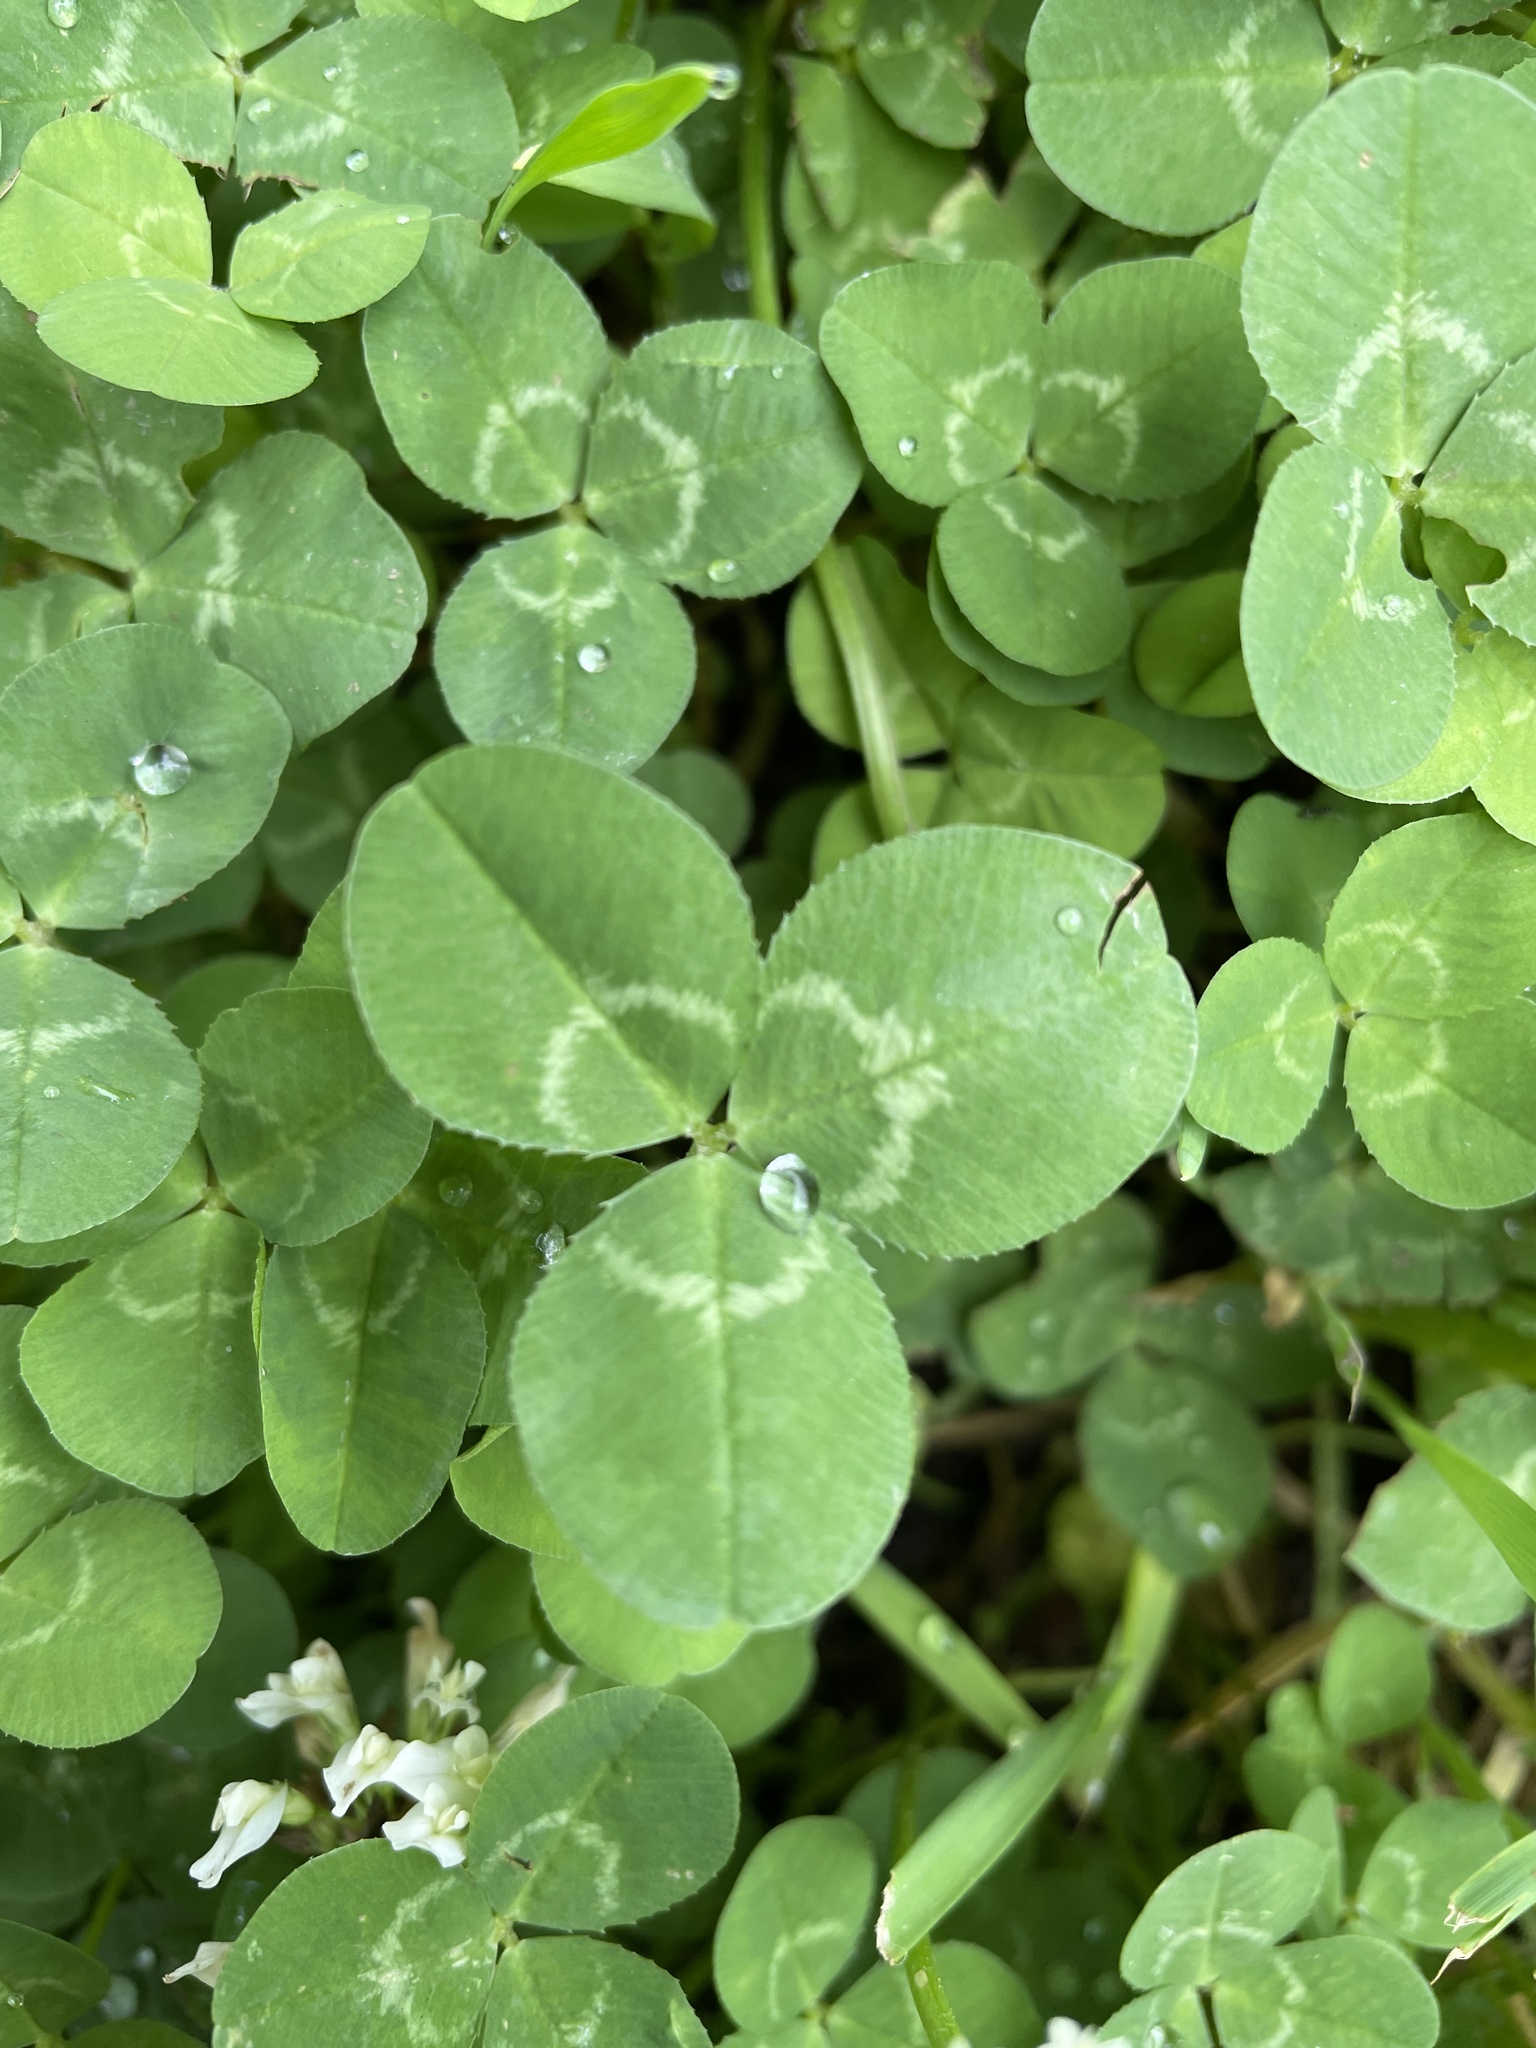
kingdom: Plantae
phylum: Tracheophyta
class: Magnoliopsida
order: Fabales
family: Fabaceae
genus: Trifolium
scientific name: Trifolium repens
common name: White clover
